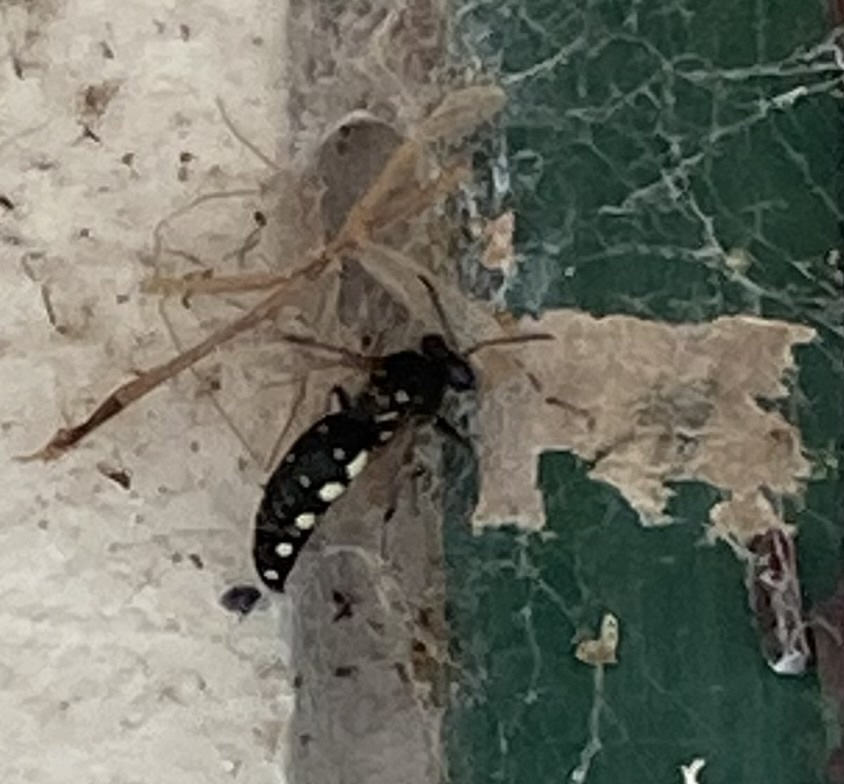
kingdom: Animalia
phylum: Arthropoda
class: Insecta
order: Hymenoptera
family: Crabronidae
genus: Stictia
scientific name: Stictia punctata
